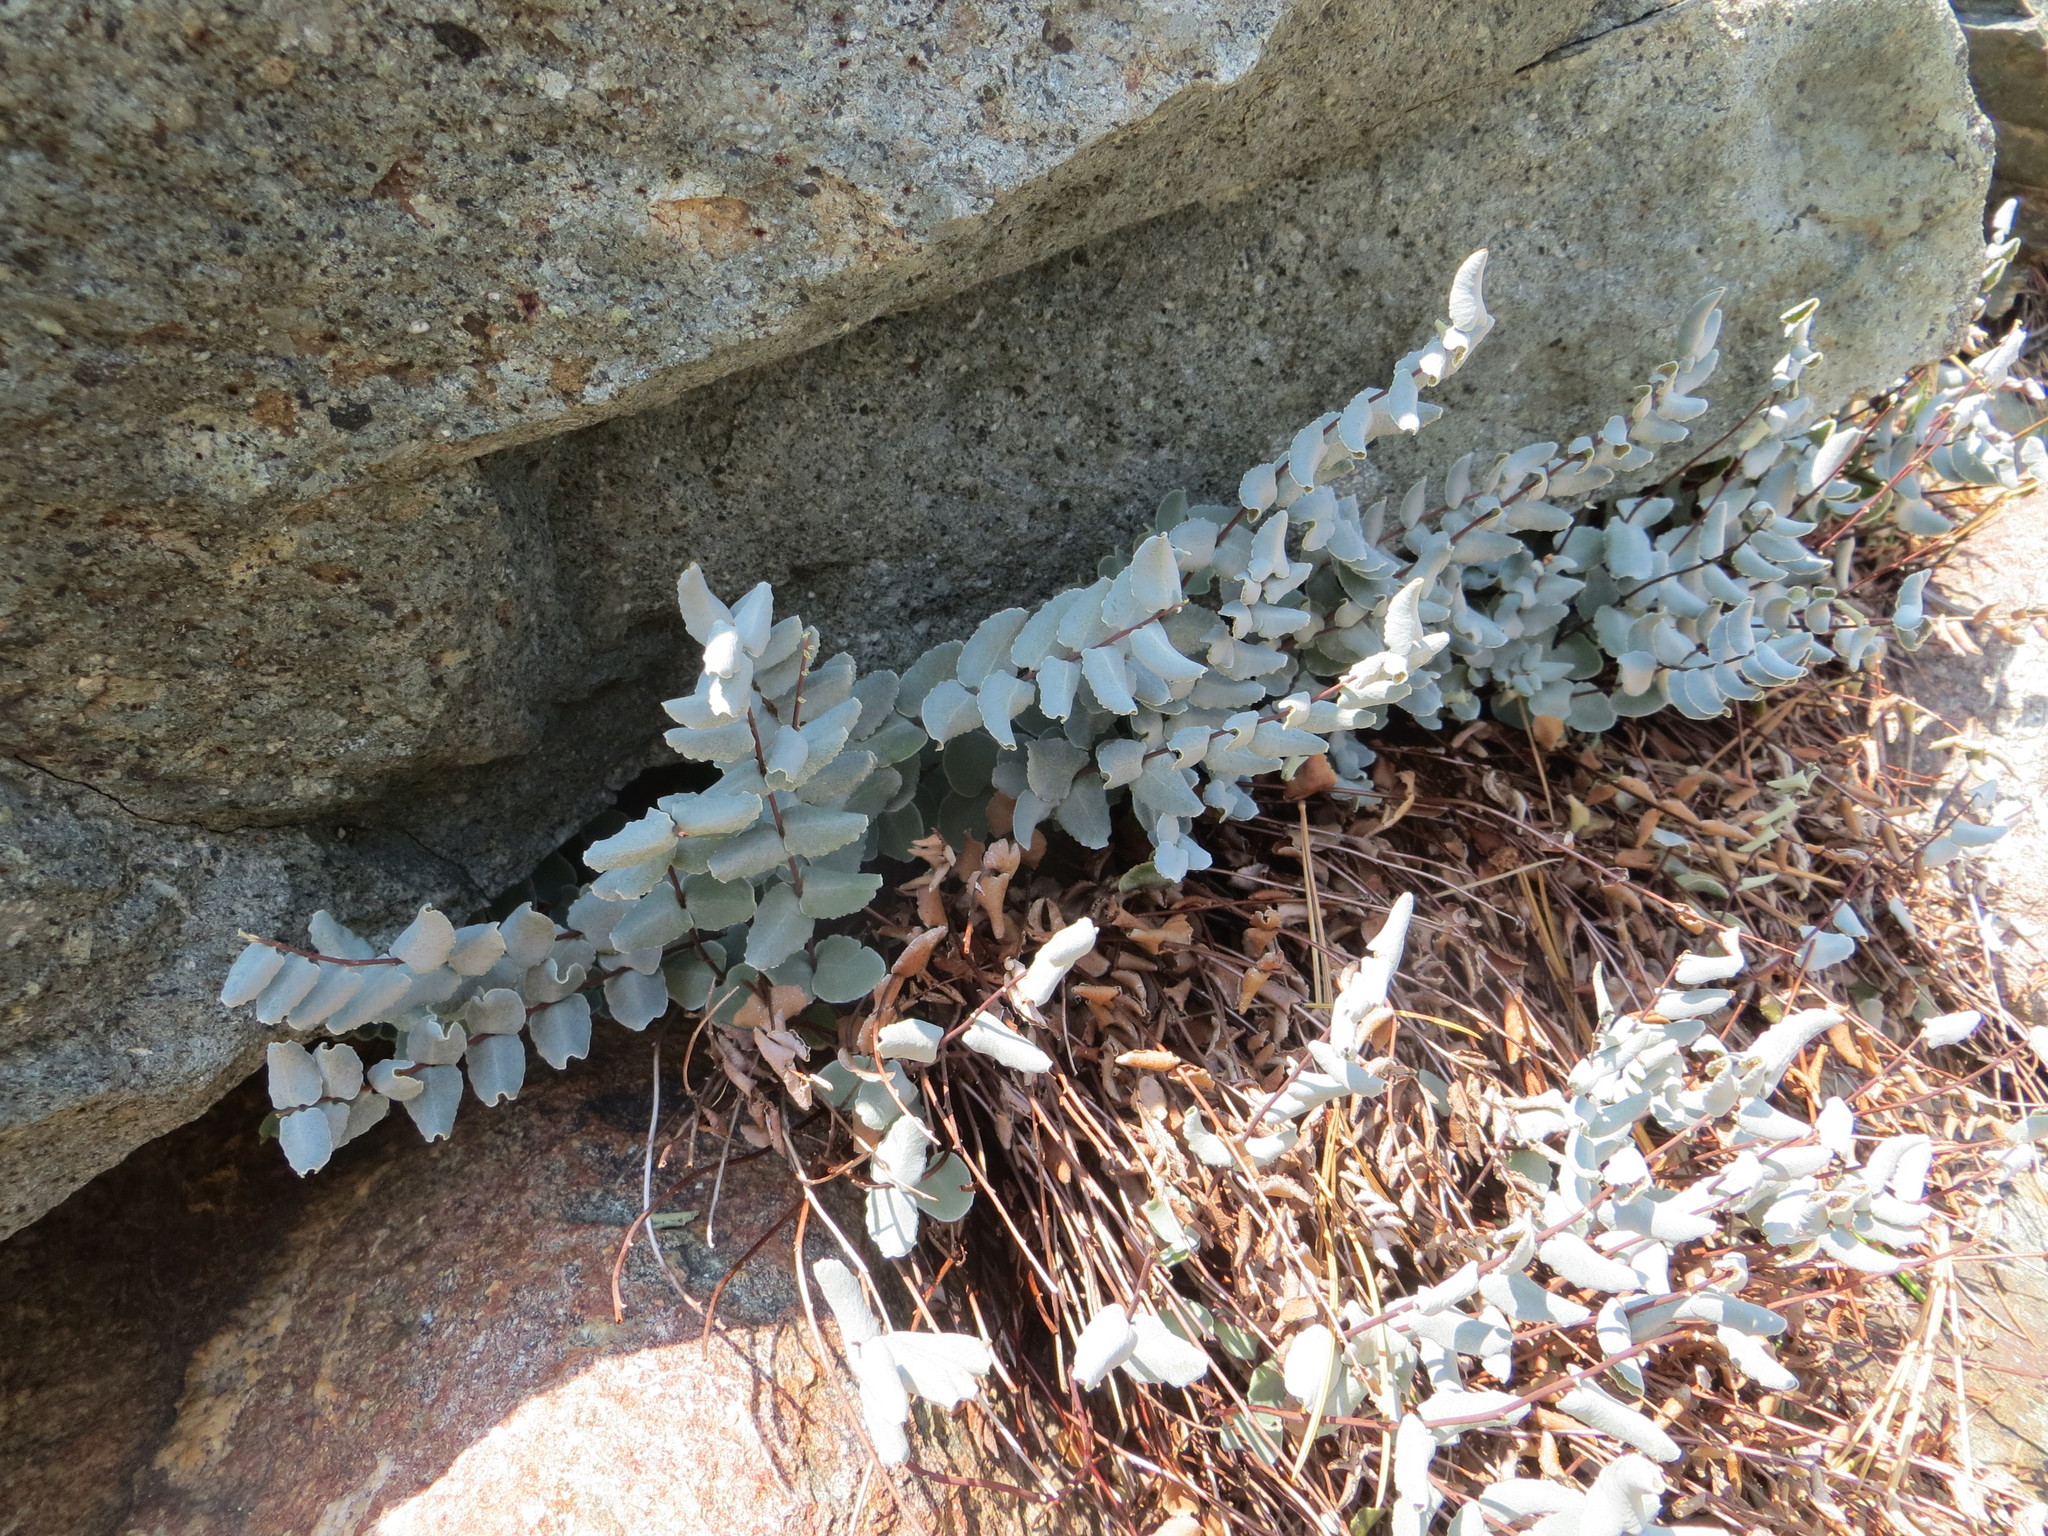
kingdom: Plantae
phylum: Tracheophyta
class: Polypodiopsida
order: Polypodiales
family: Pteridaceae
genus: Pellaea
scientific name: Pellaea bridgesii
